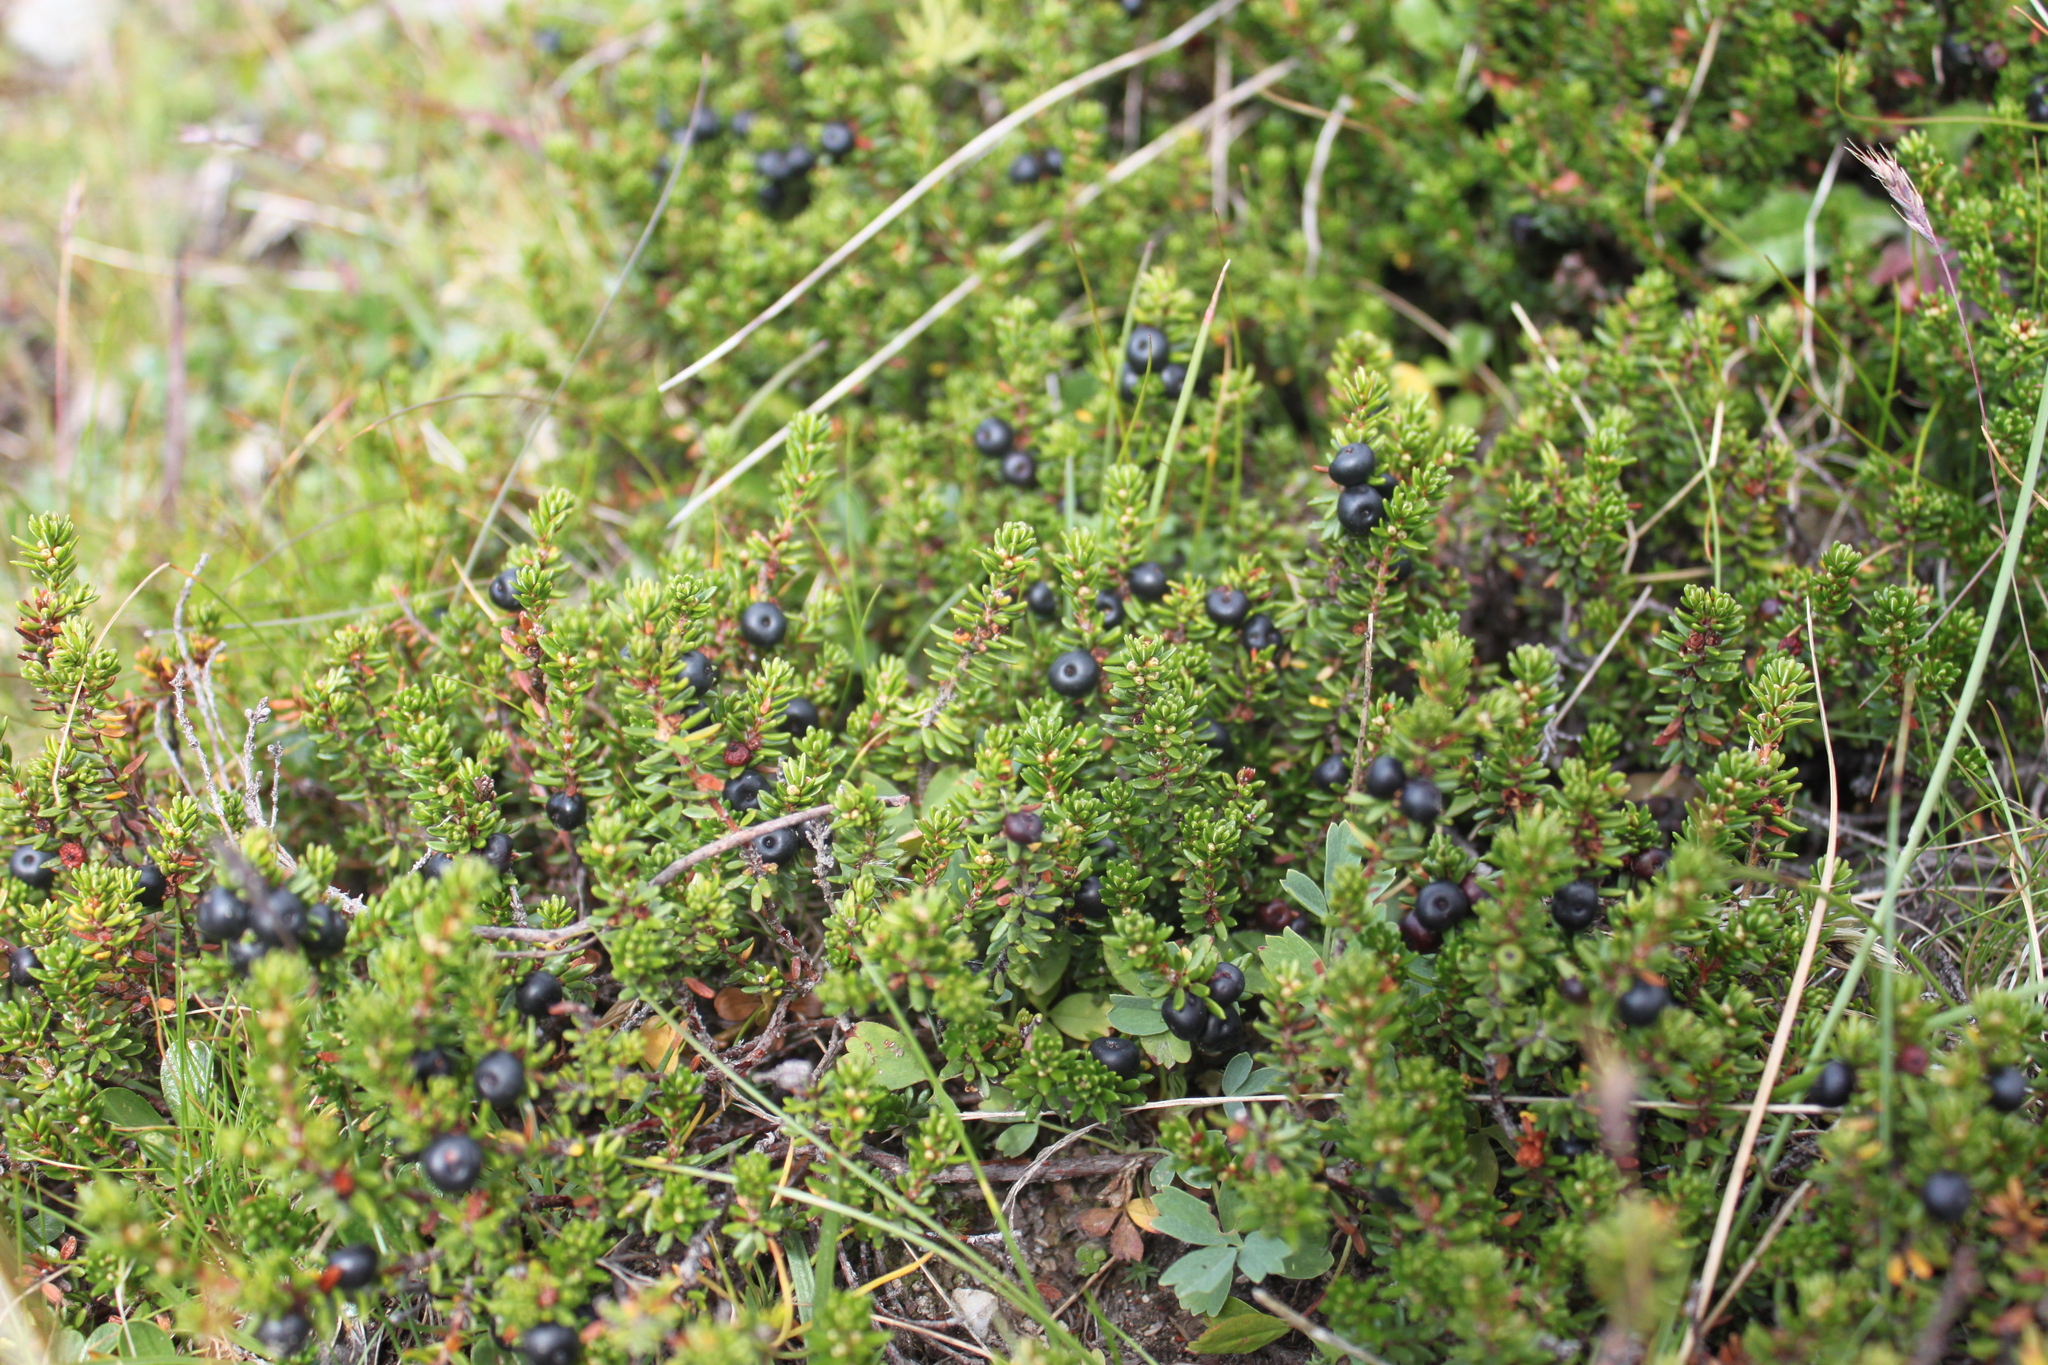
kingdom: Plantae
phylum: Tracheophyta
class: Magnoliopsida
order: Ericales
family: Ericaceae
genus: Empetrum
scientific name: Empetrum hermaphroditum
